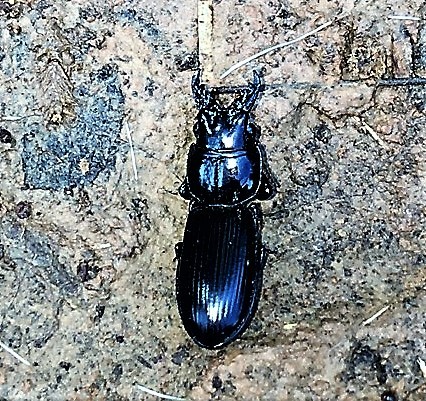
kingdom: Animalia
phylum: Arthropoda
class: Insecta
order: Coleoptera
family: Carabidae
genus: Scarites
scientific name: Scarites subterraneus
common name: Big-headed ground beetle
